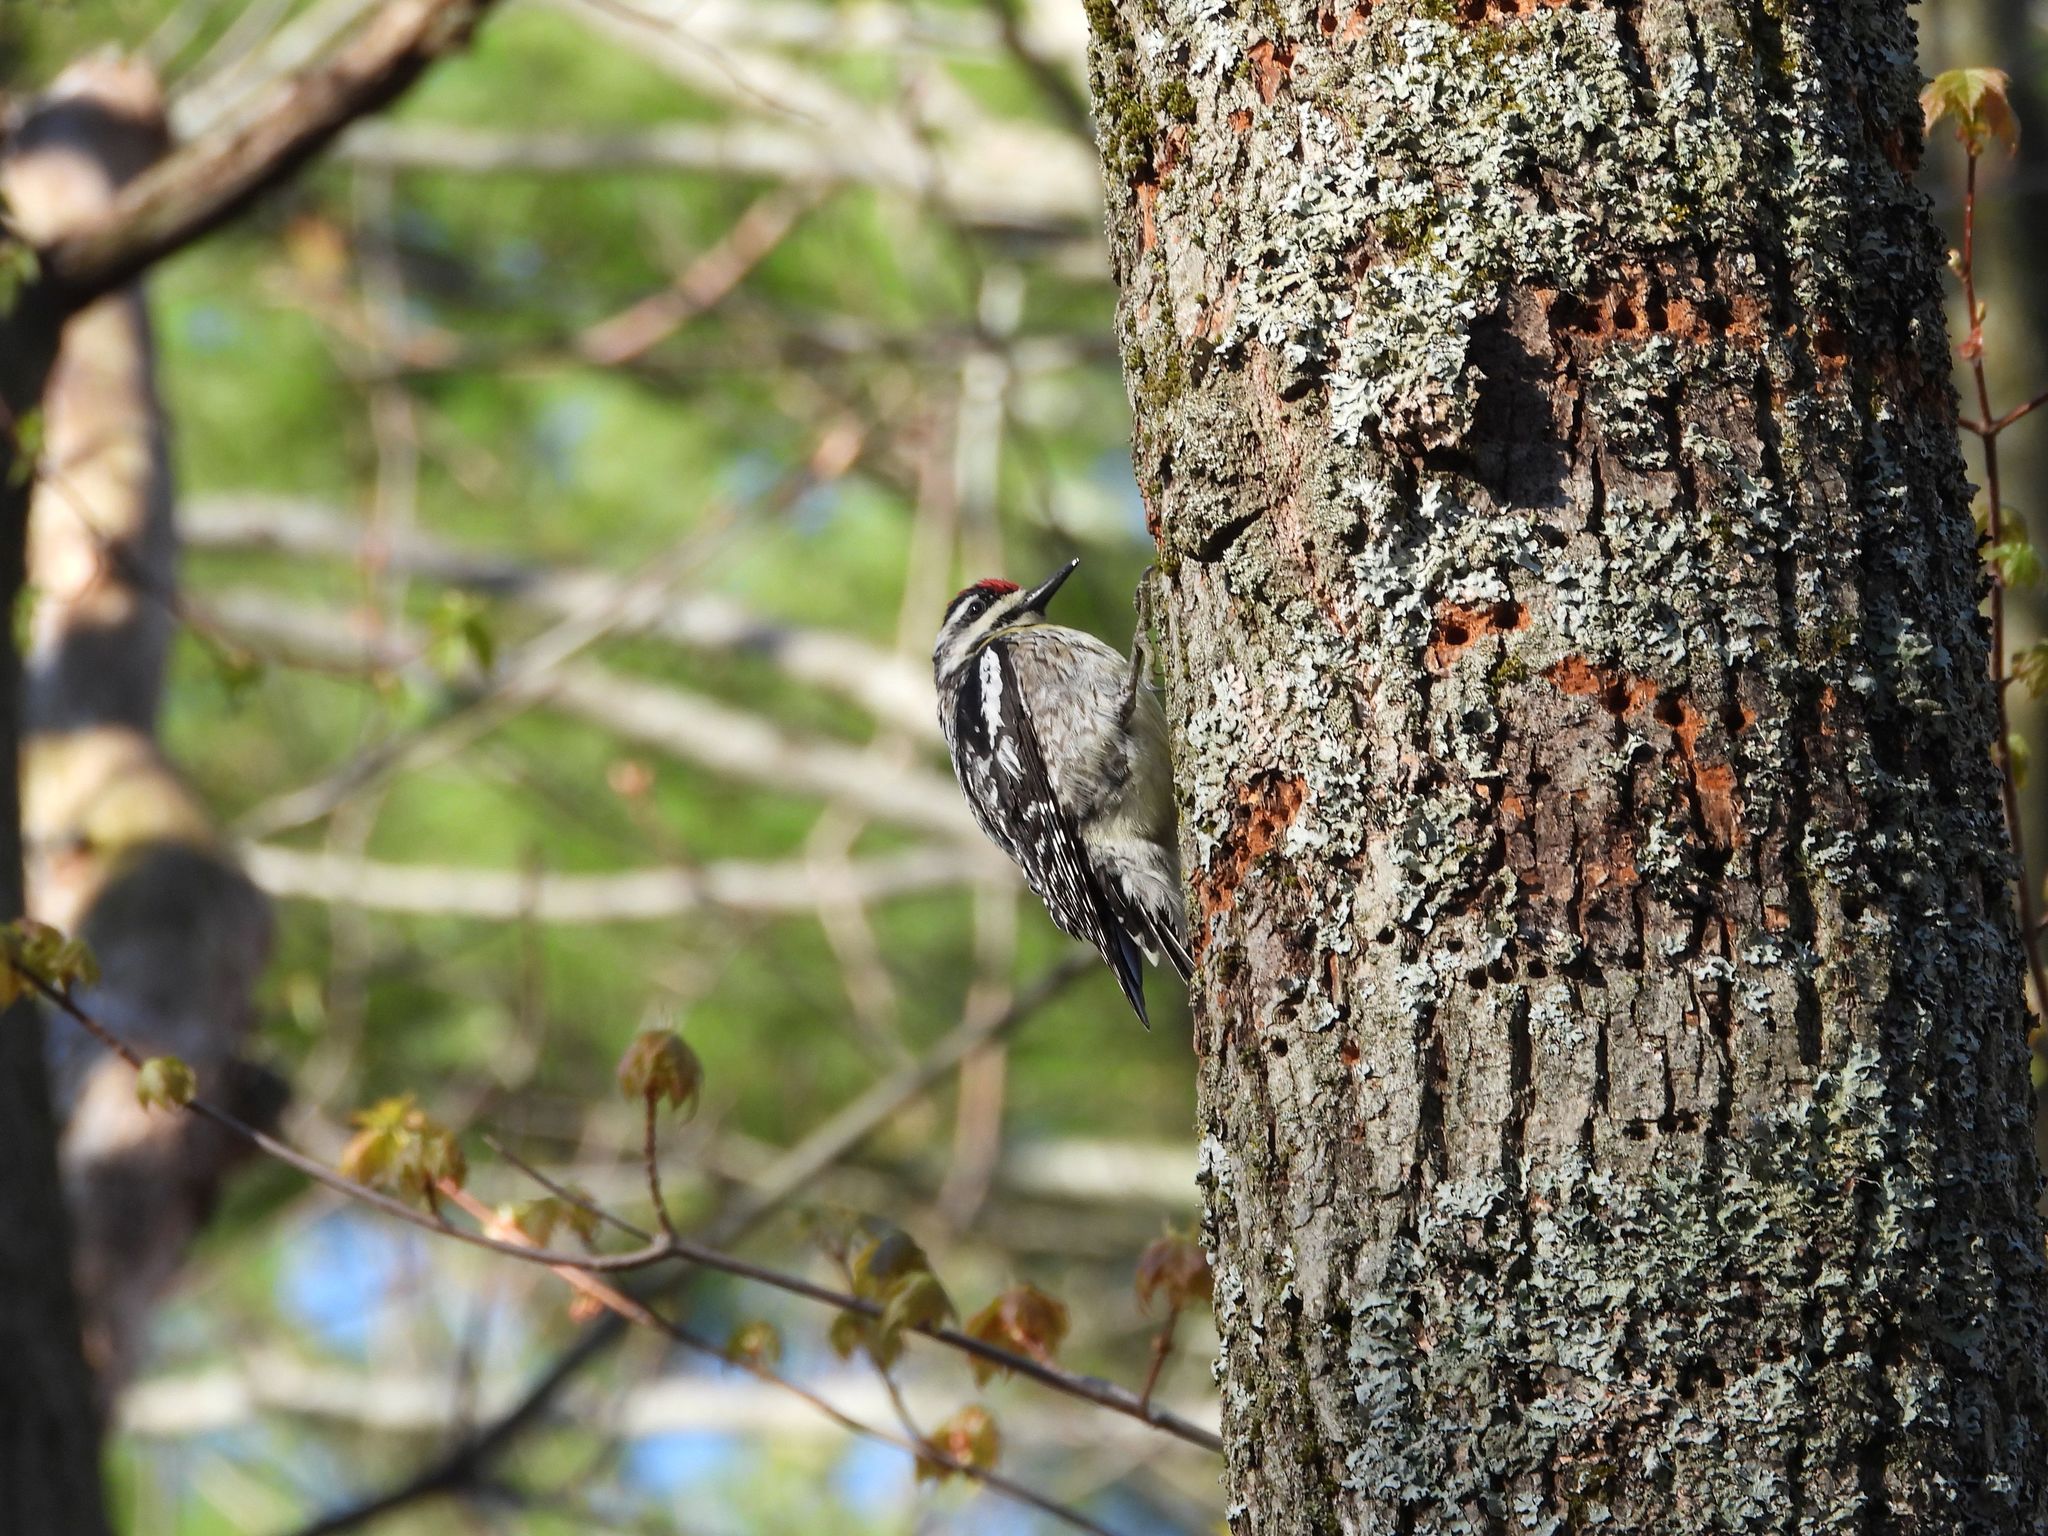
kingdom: Animalia
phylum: Chordata
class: Aves
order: Piciformes
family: Picidae
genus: Sphyrapicus
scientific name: Sphyrapicus varius
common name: Yellow-bellied sapsucker
